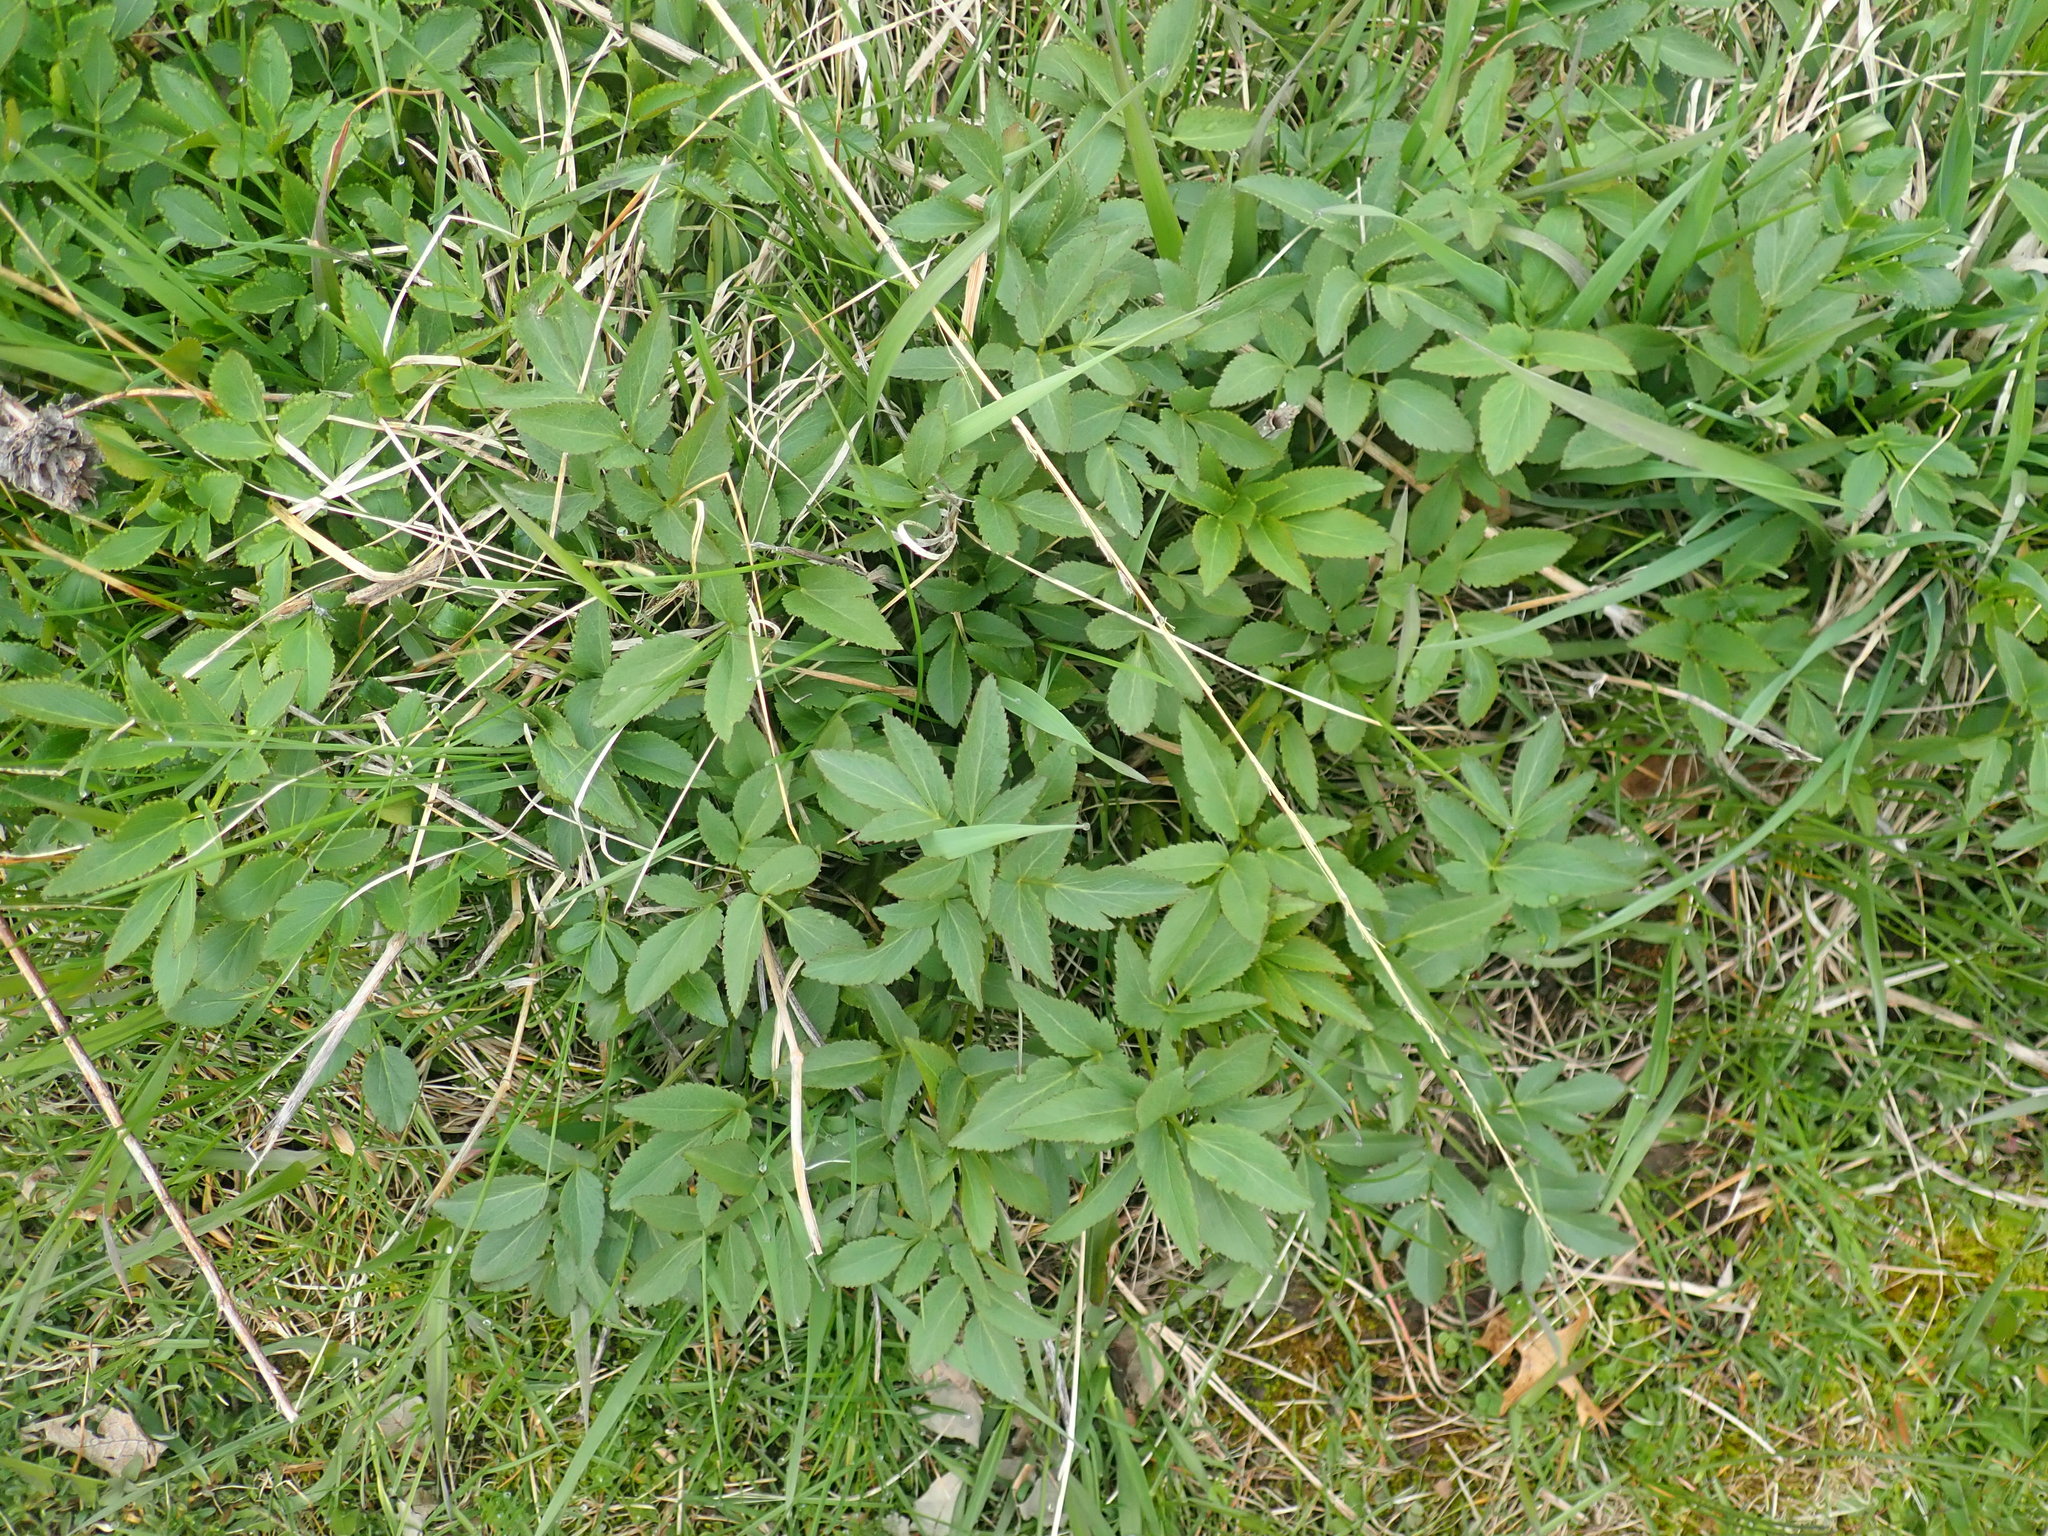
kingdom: Plantae
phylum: Tracheophyta
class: Magnoliopsida
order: Apiales
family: Apiaceae
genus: Aegopodium
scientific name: Aegopodium podagraria
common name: Ground-elder
